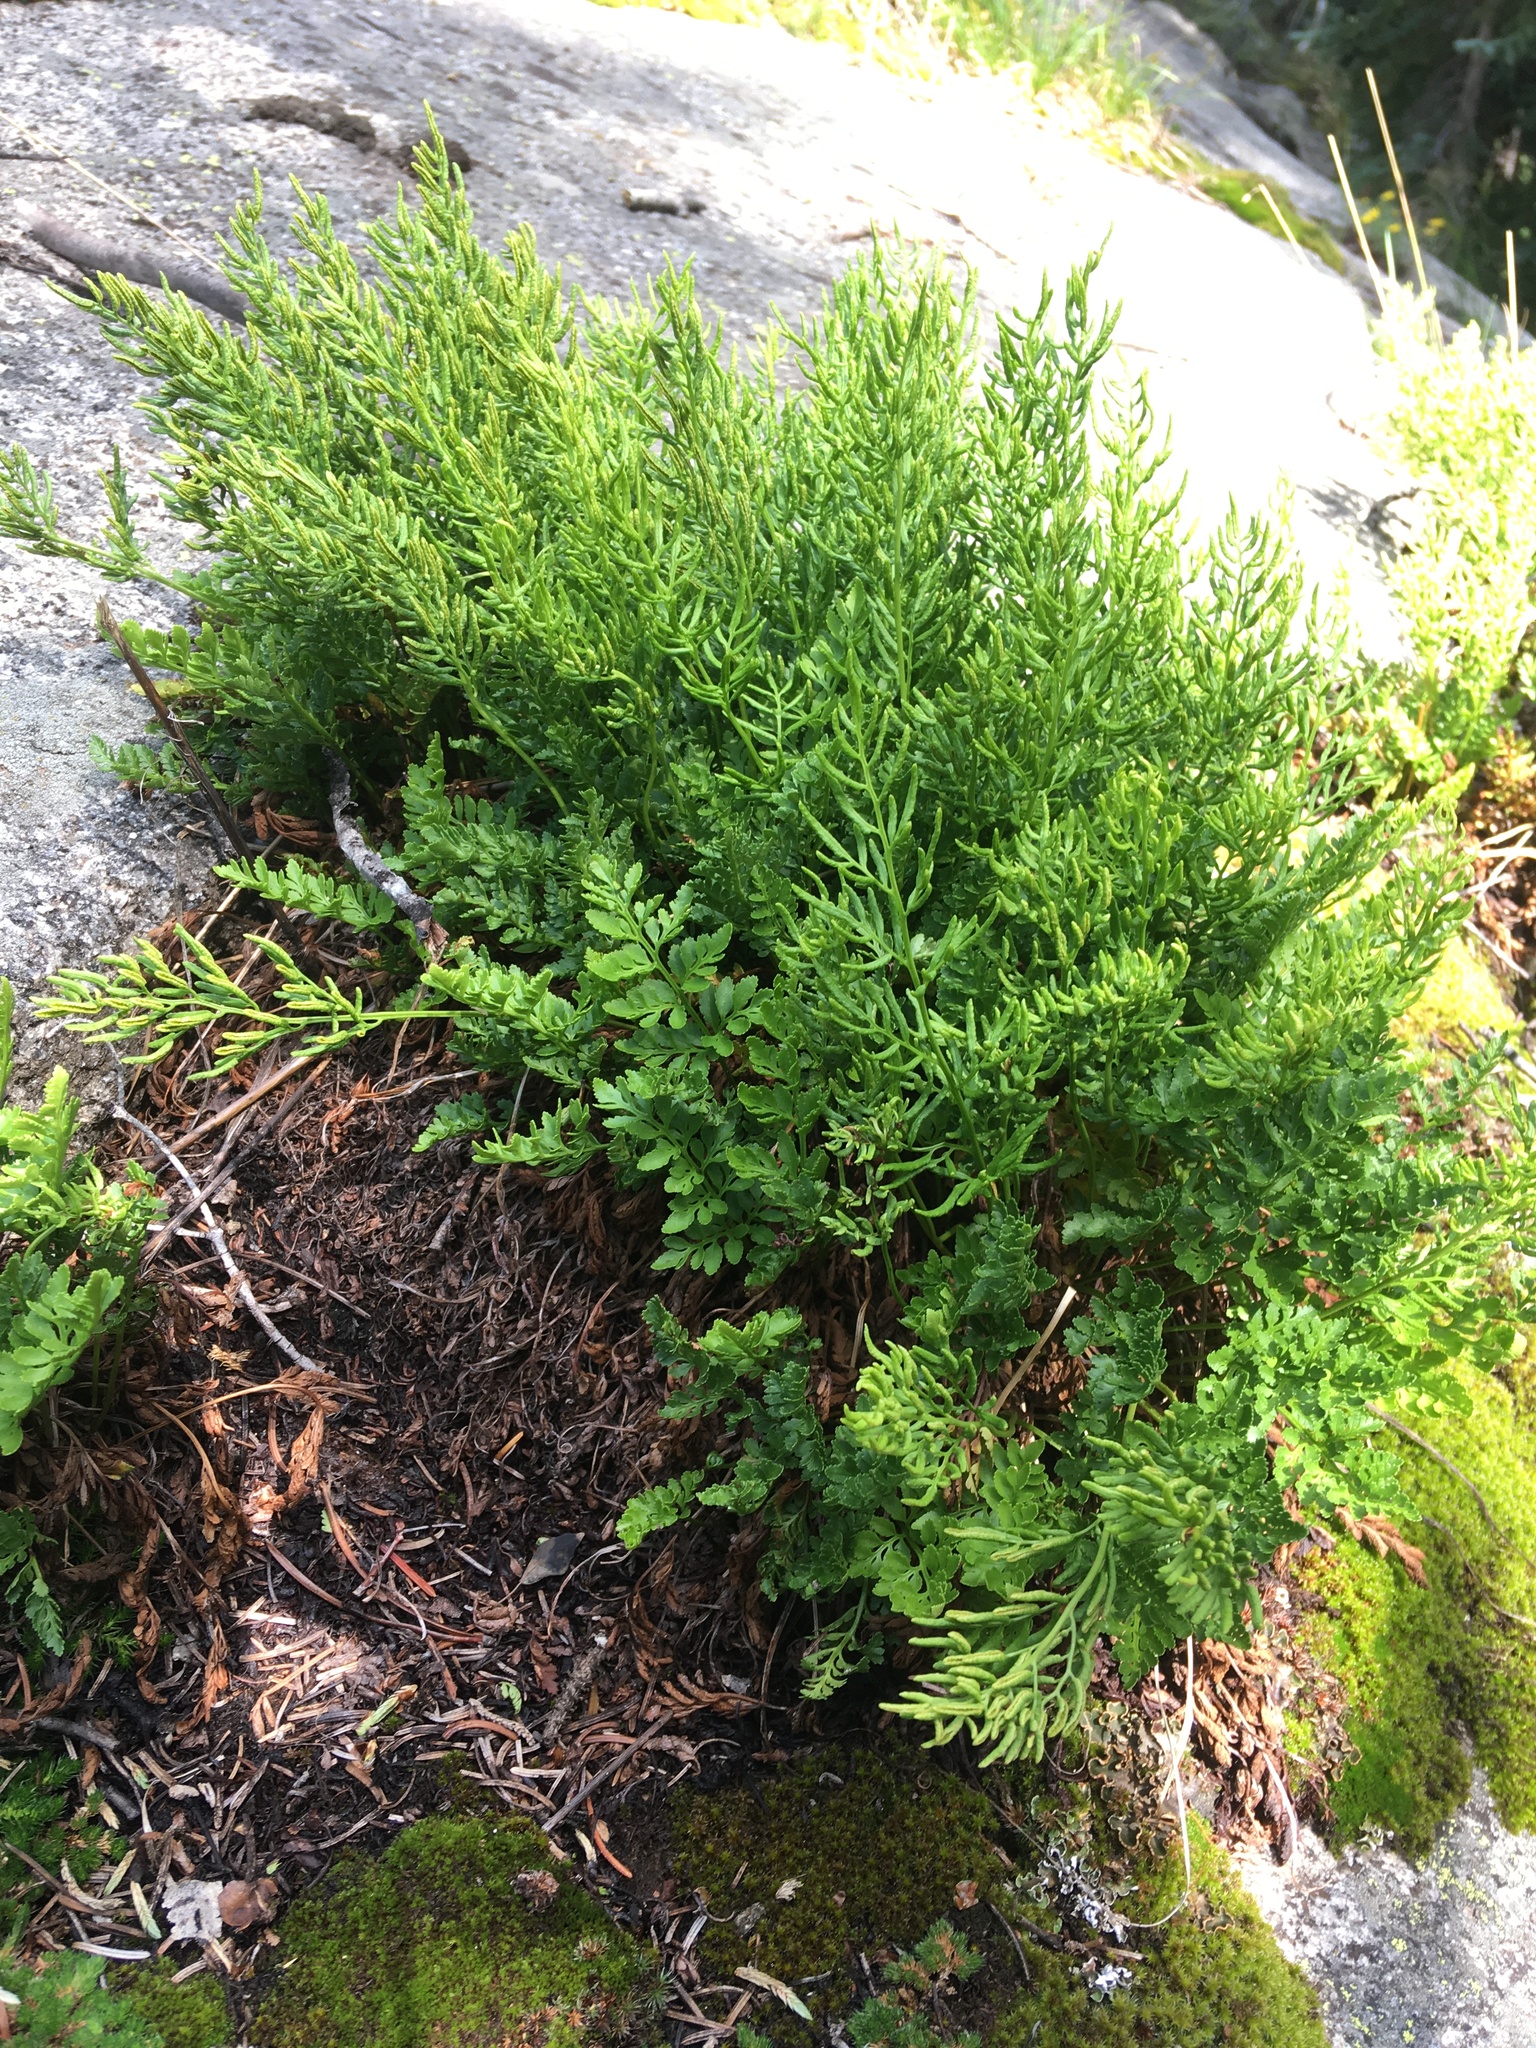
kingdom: Plantae
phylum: Tracheophyta
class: Polypodiopsida
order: Polypodiales
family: Pteridaceae
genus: Cryptogramma
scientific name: Cryptogramma acrostichoides
